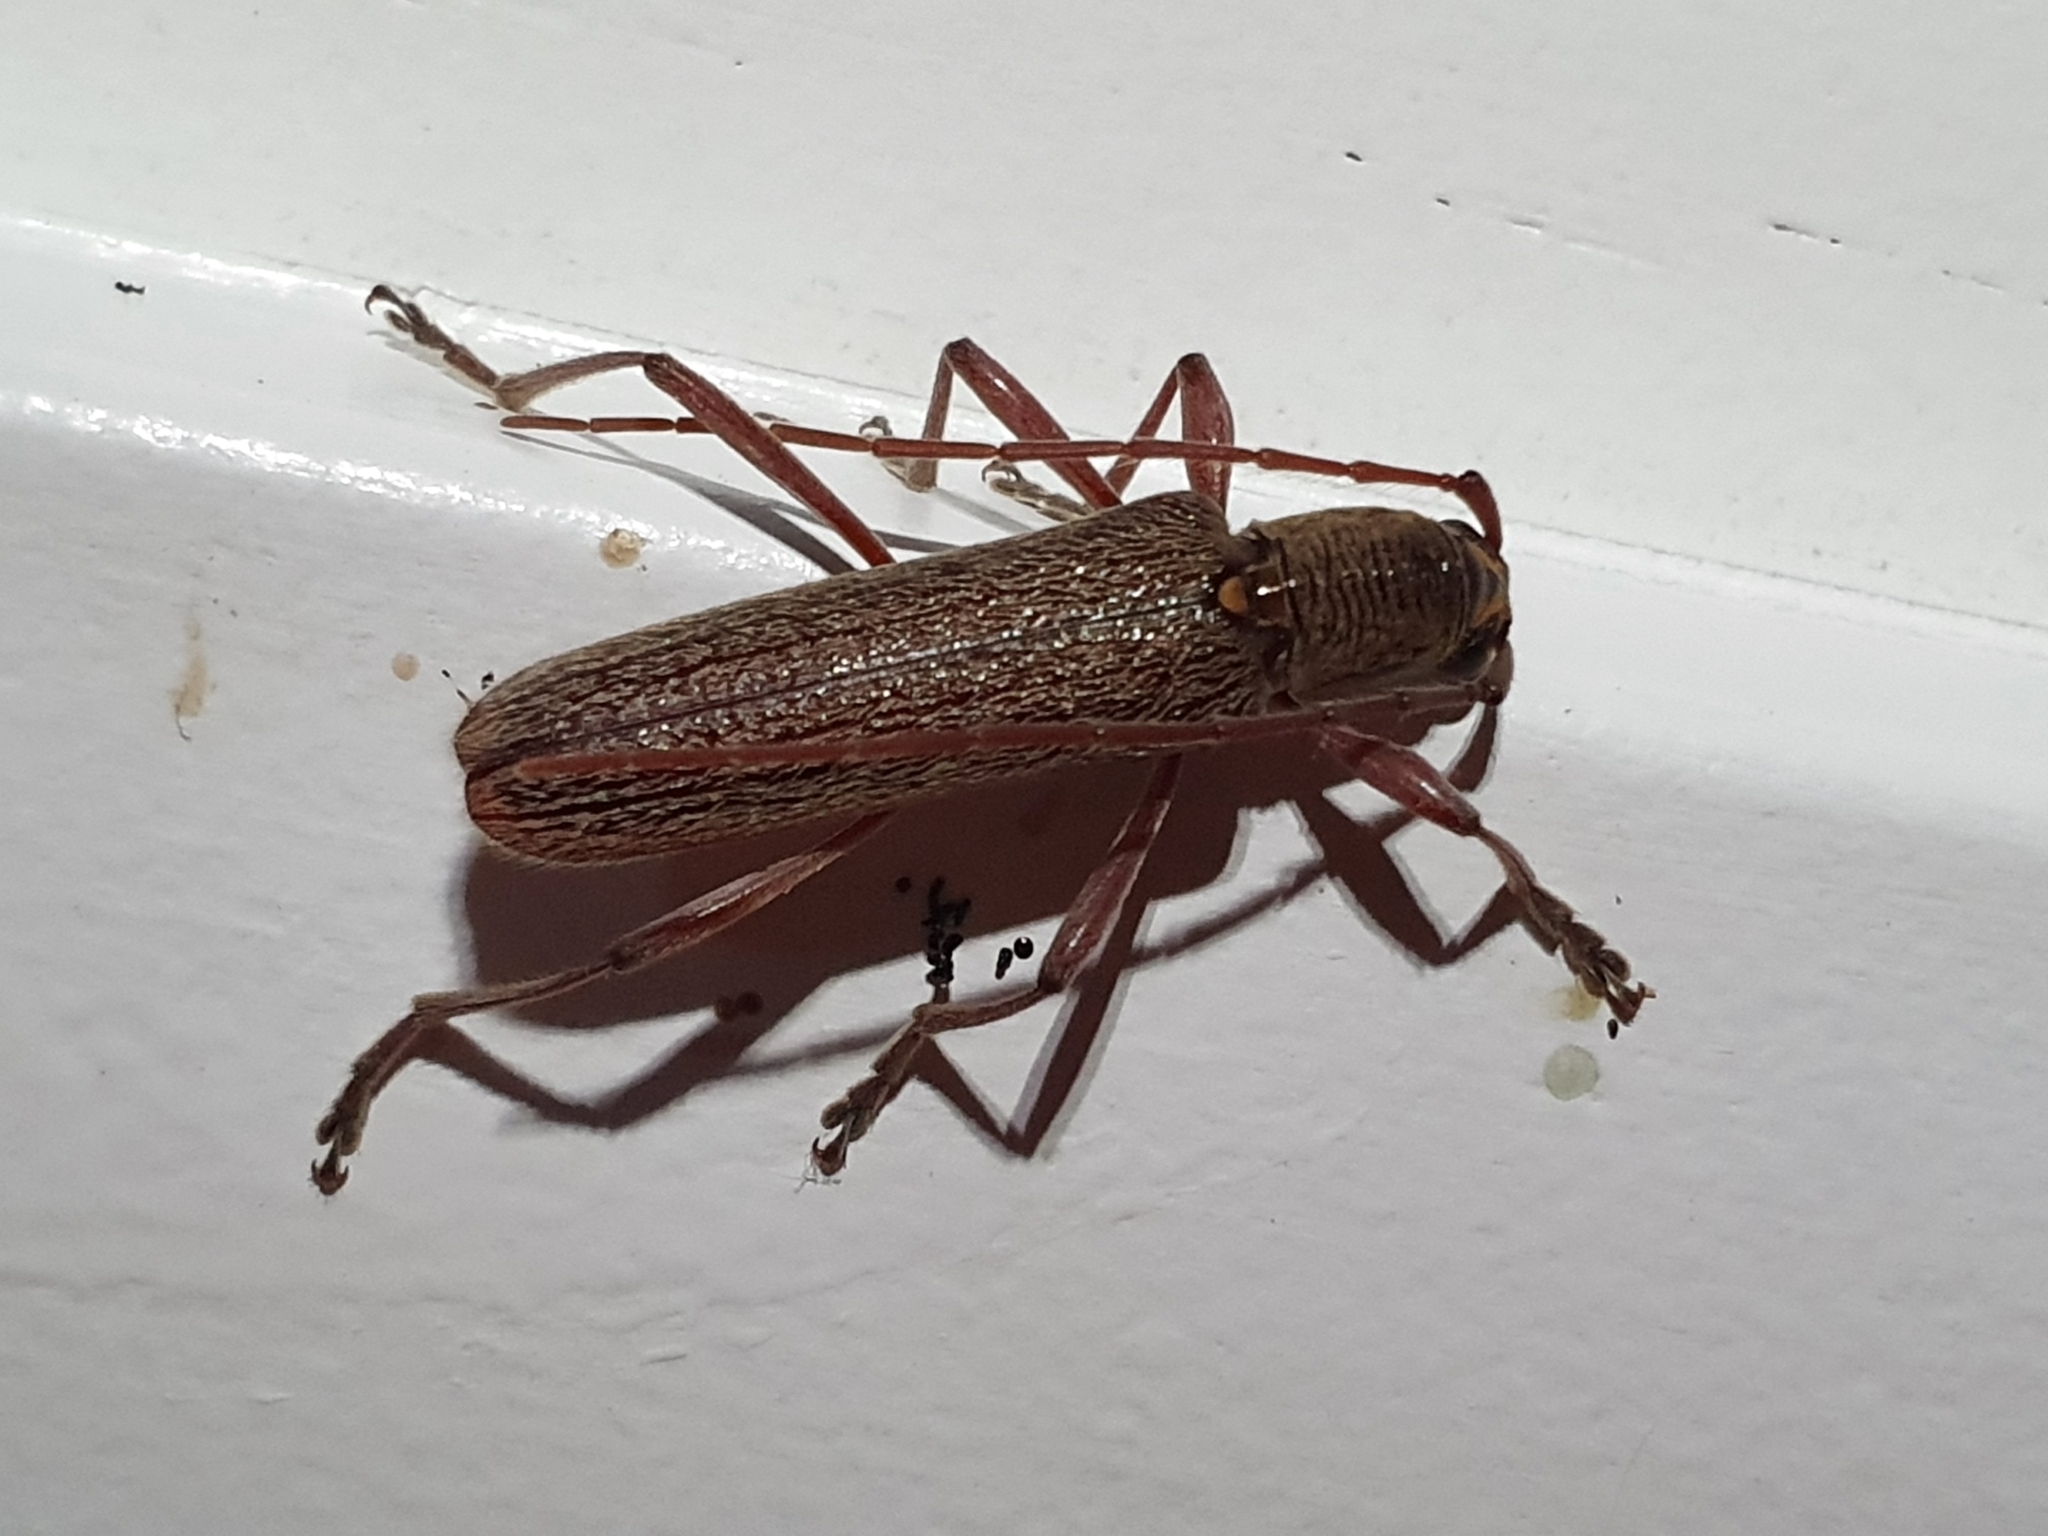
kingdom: Animalia
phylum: Arthropoda
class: Insecta
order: Coleoptera
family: Cerambycidae
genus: Oemona
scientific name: Oemona hirta
